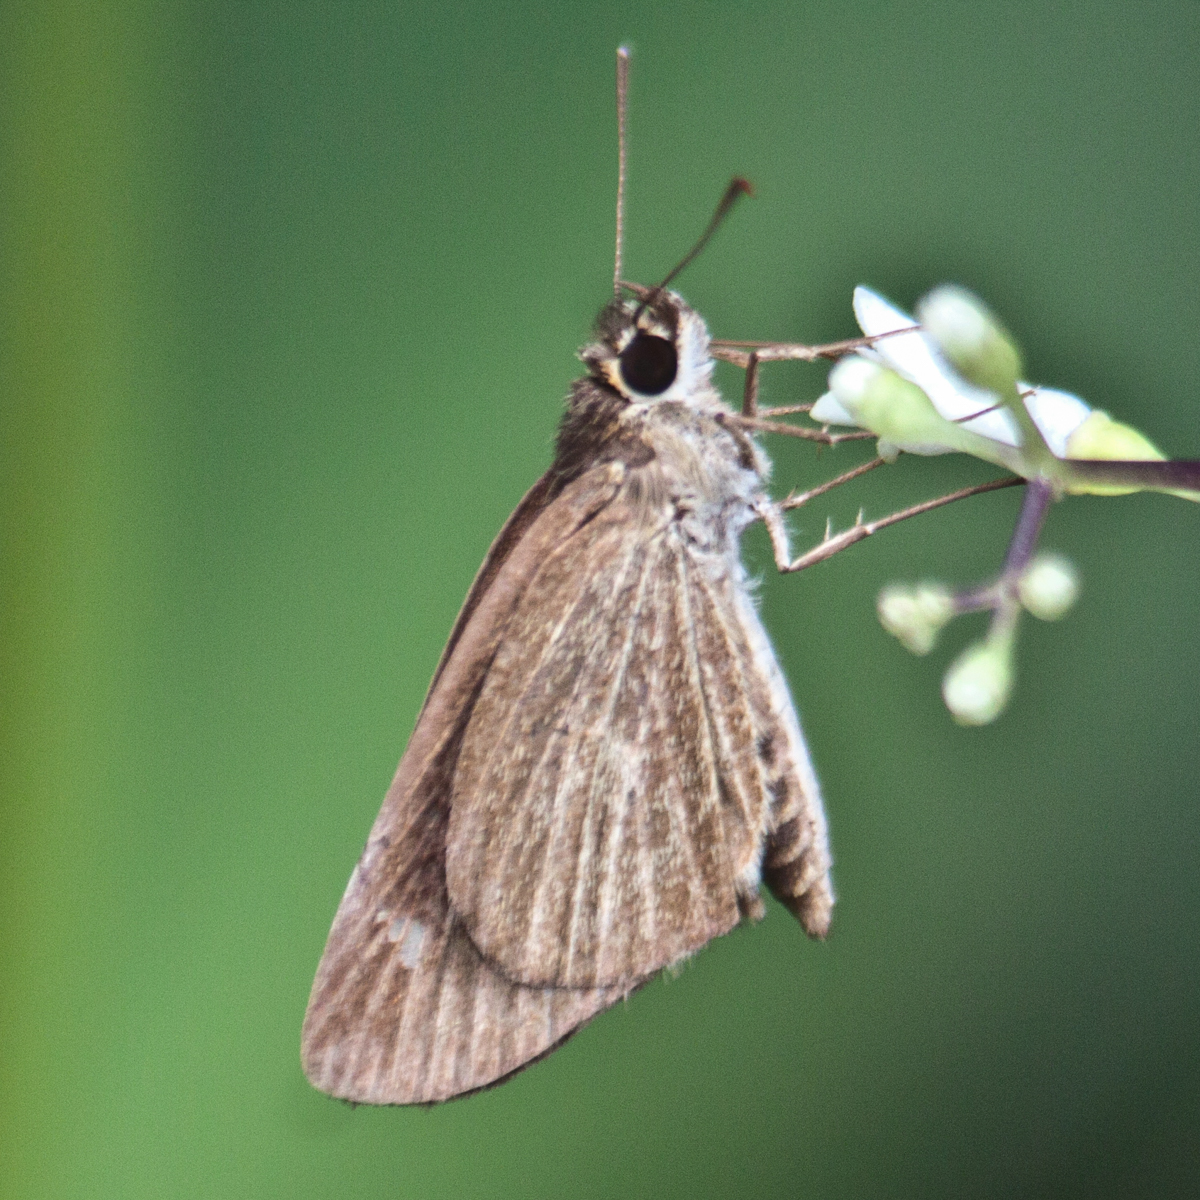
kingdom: Animalia
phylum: Arthropoda
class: Insecta
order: Lepidoptera
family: Hesperiidae
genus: Suada
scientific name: Suada swerga
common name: Grass bob
